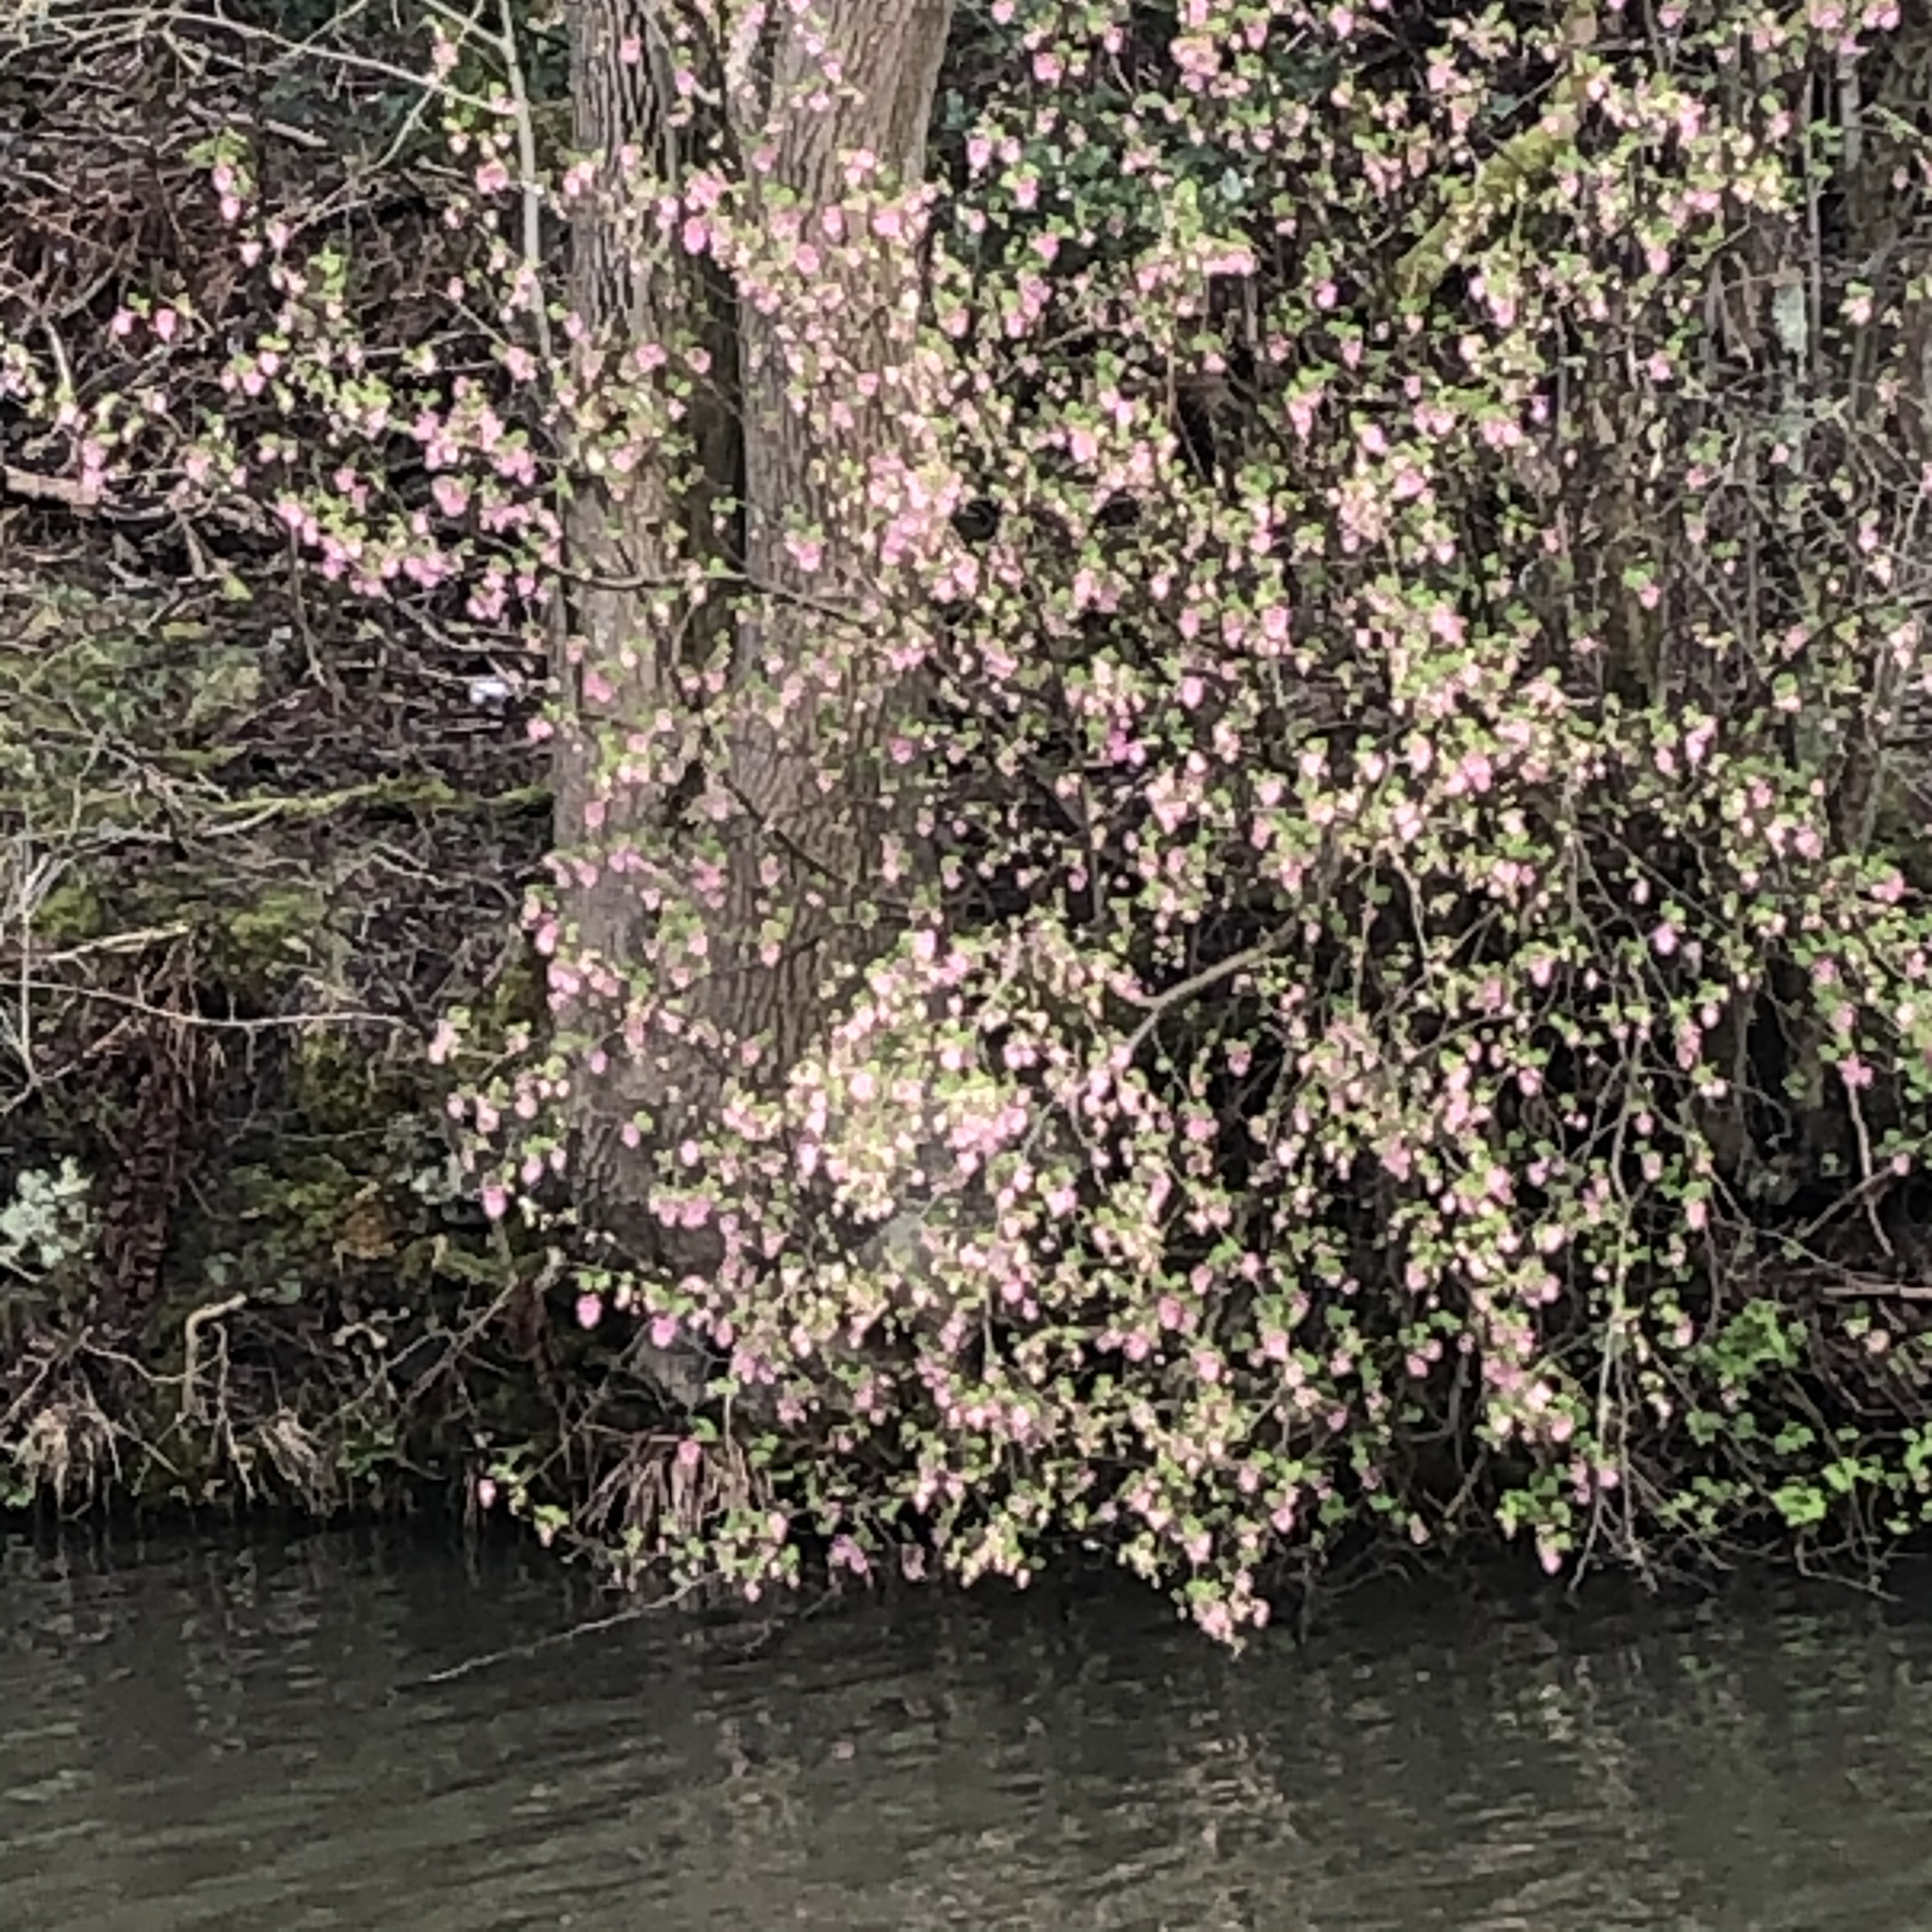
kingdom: Plantae
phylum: Tracheophyta
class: Magnoliopsida
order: Saxifragales
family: Grossulariaceae
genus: Ribes
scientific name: Ribes sanguineum
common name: Flowering currant
